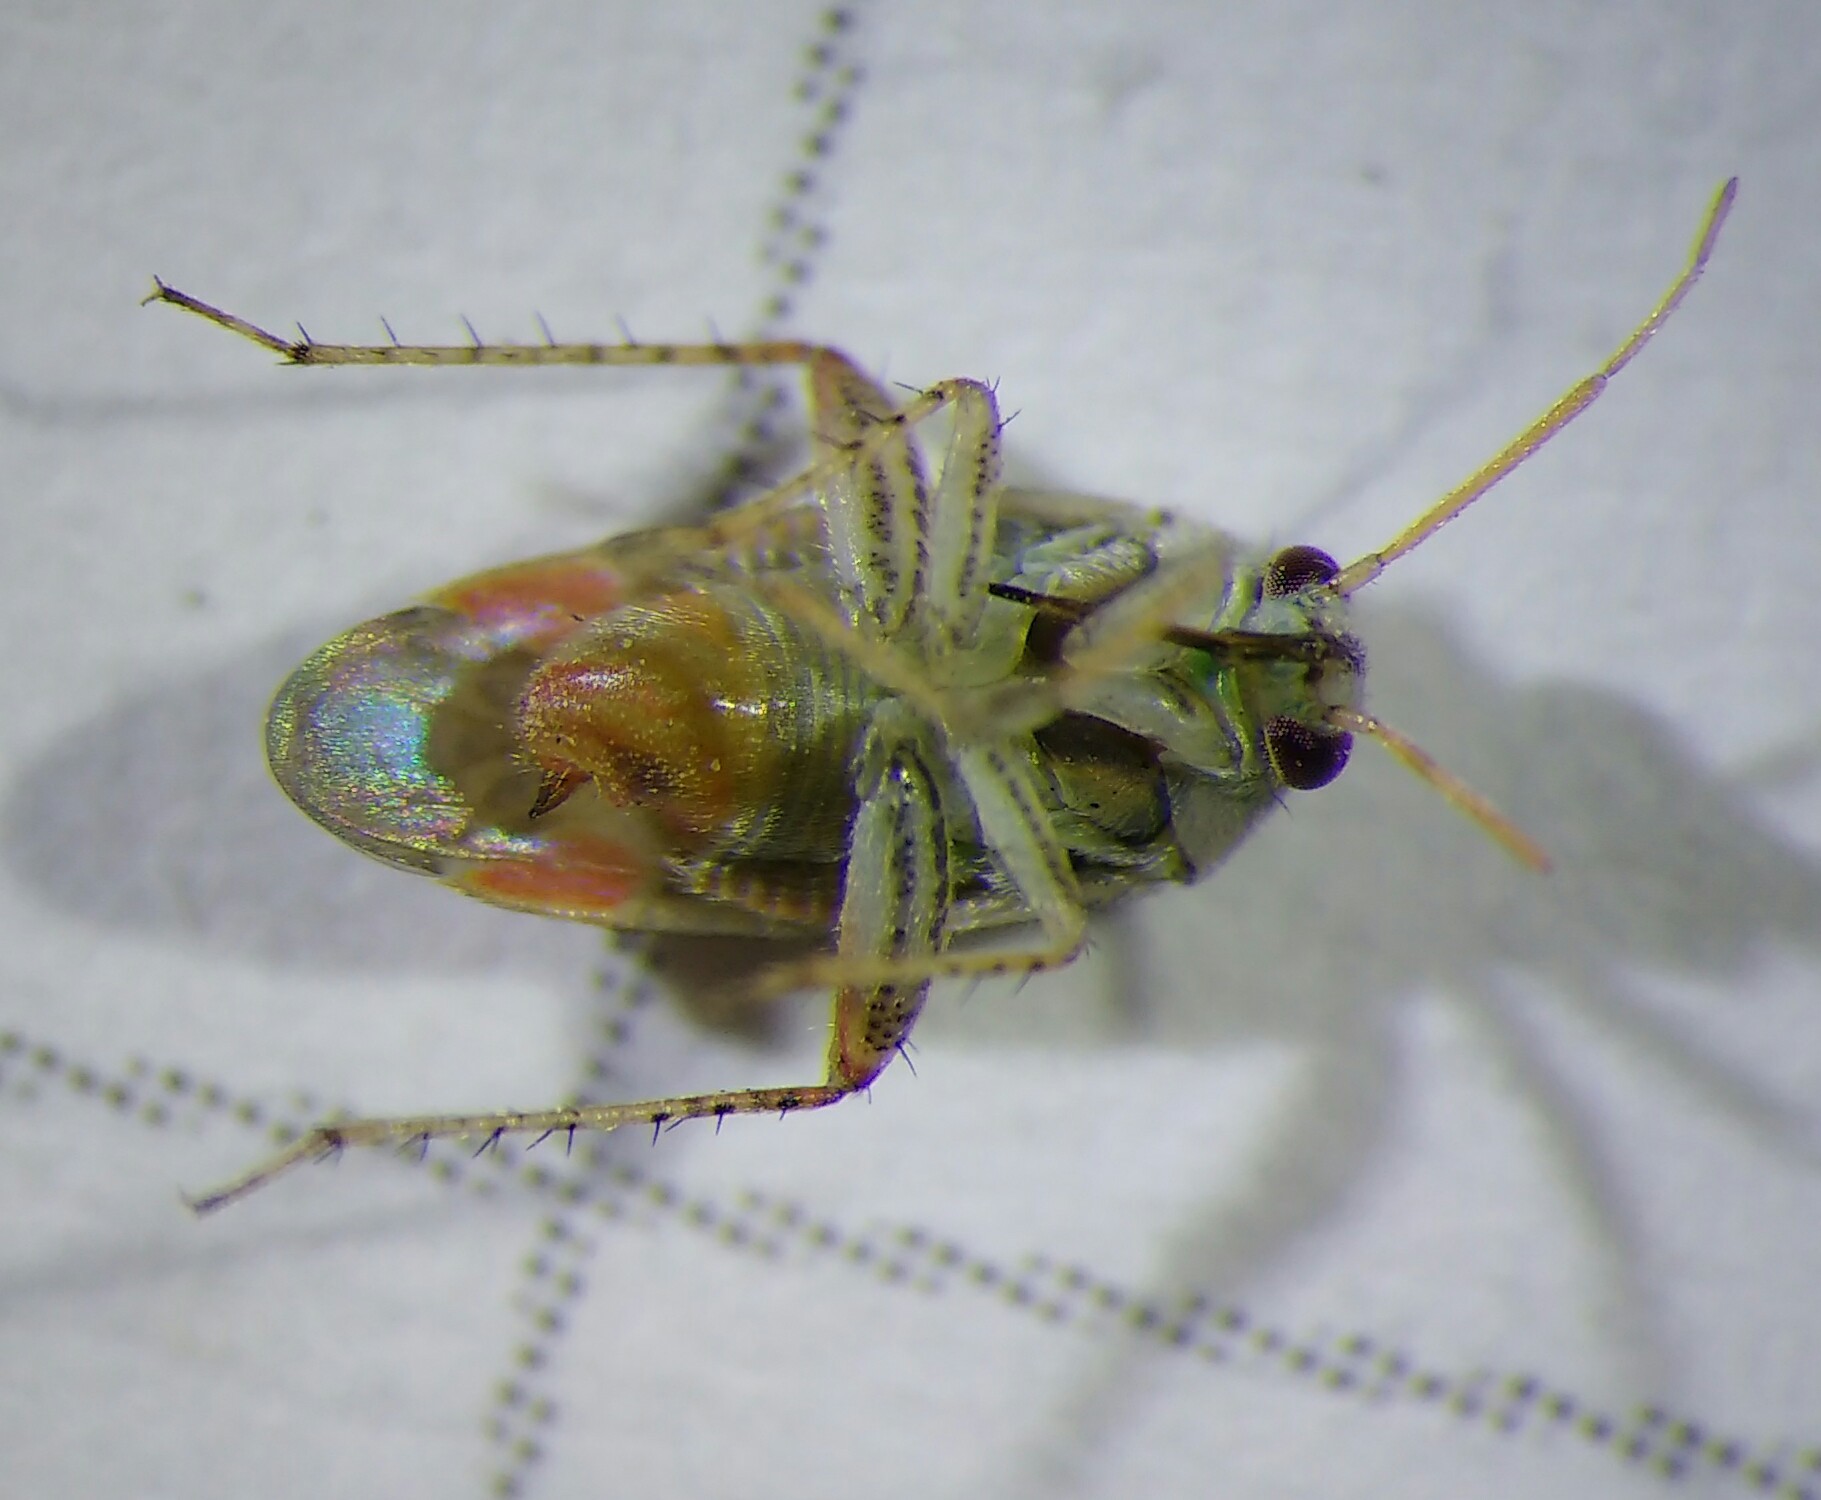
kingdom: Animalia
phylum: Arthropoda
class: Insecta
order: Hemiptera
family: Miridae
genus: Sthenarus
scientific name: Sthenarus rotermundi
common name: Leaf bug
